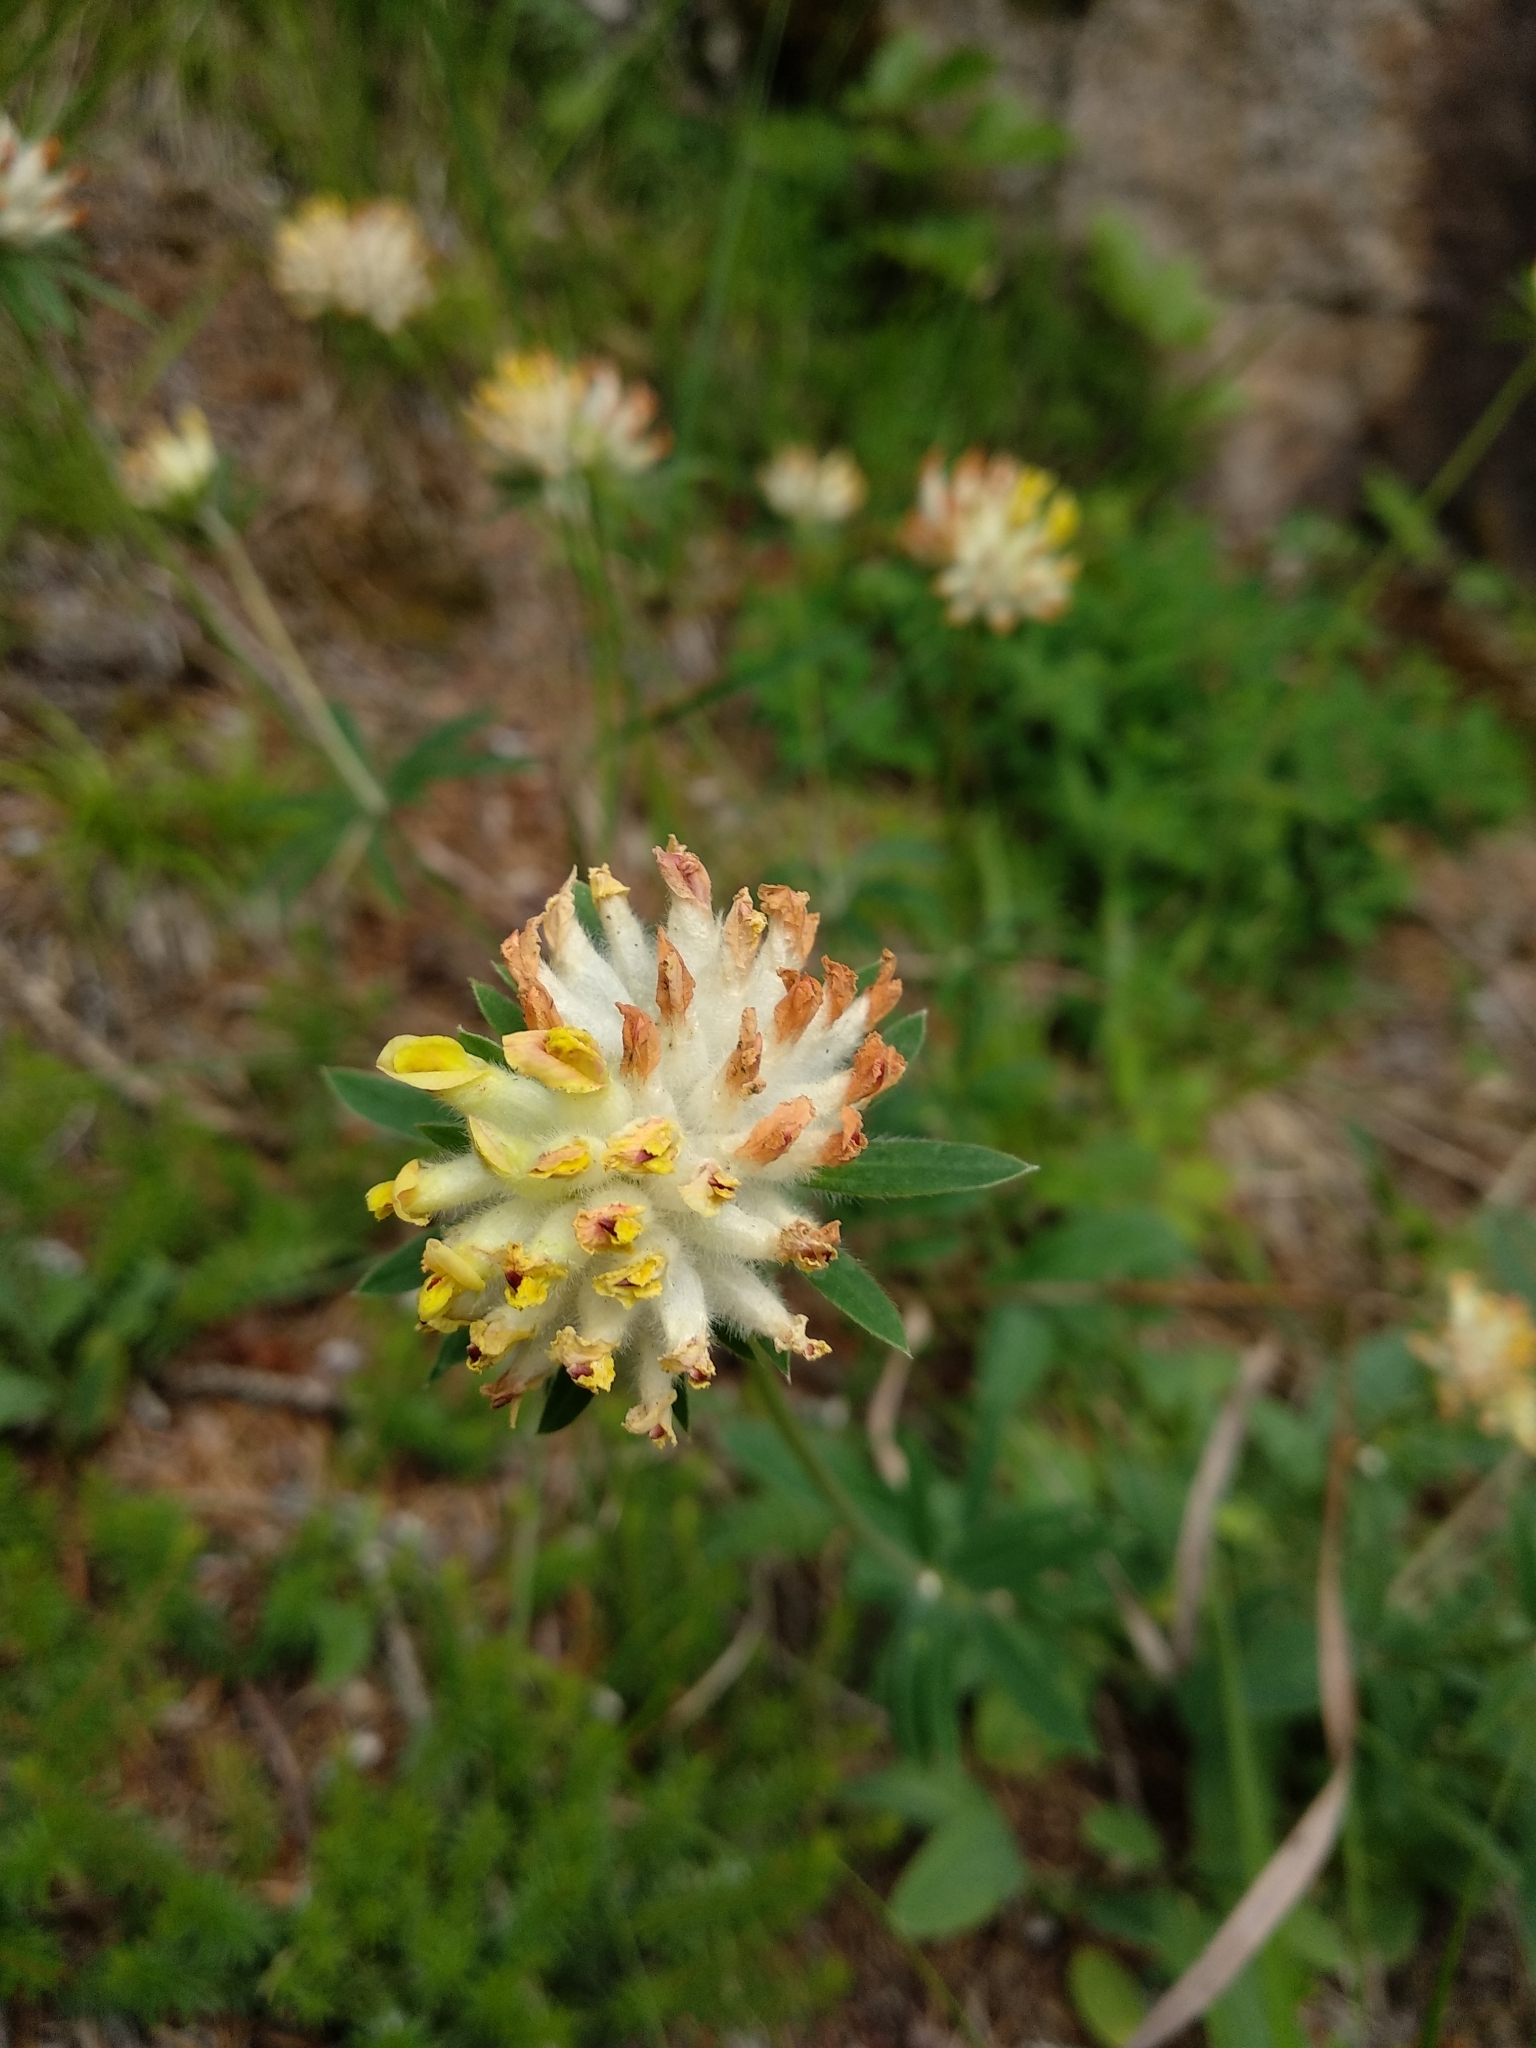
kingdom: Plantae
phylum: Tracheophyta
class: Magnoliopsida
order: Fabales
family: Fabaceae
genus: Anthyllis
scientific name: Anthyllis vulneraria
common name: Kidney vetch
